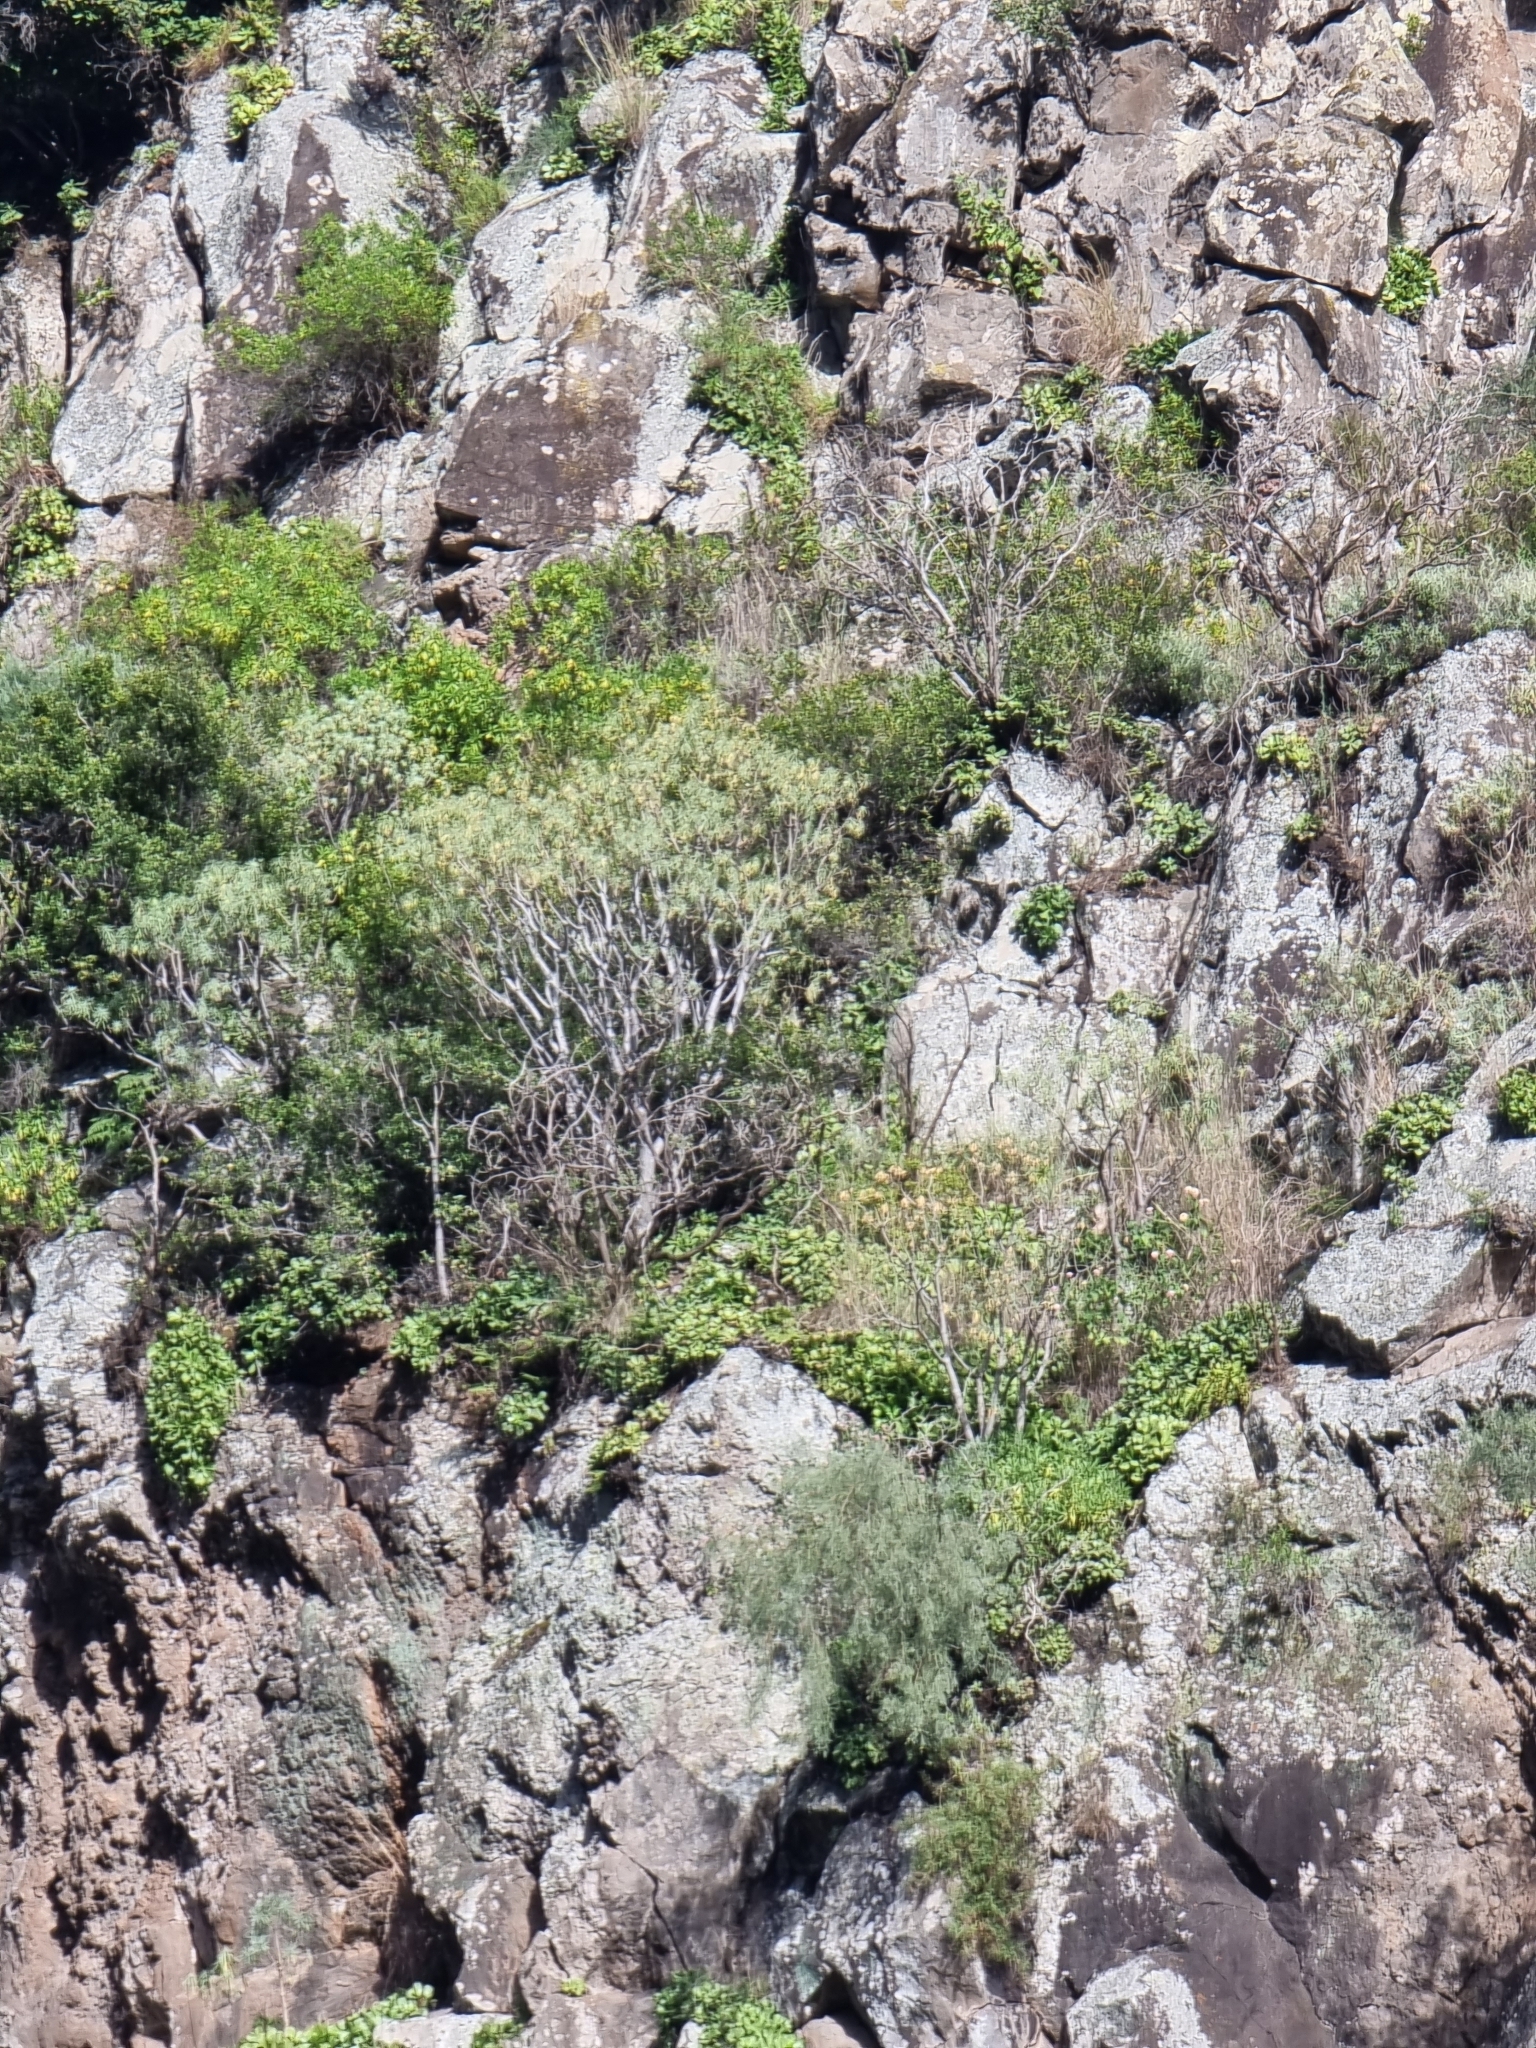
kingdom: Plantae
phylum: Tracheophyta
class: Magnoliopsida
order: Malpighiales
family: Euphorbiaceae
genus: Euphorbia
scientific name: Euphorbia piscatoria
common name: Fish-stunning spurge
